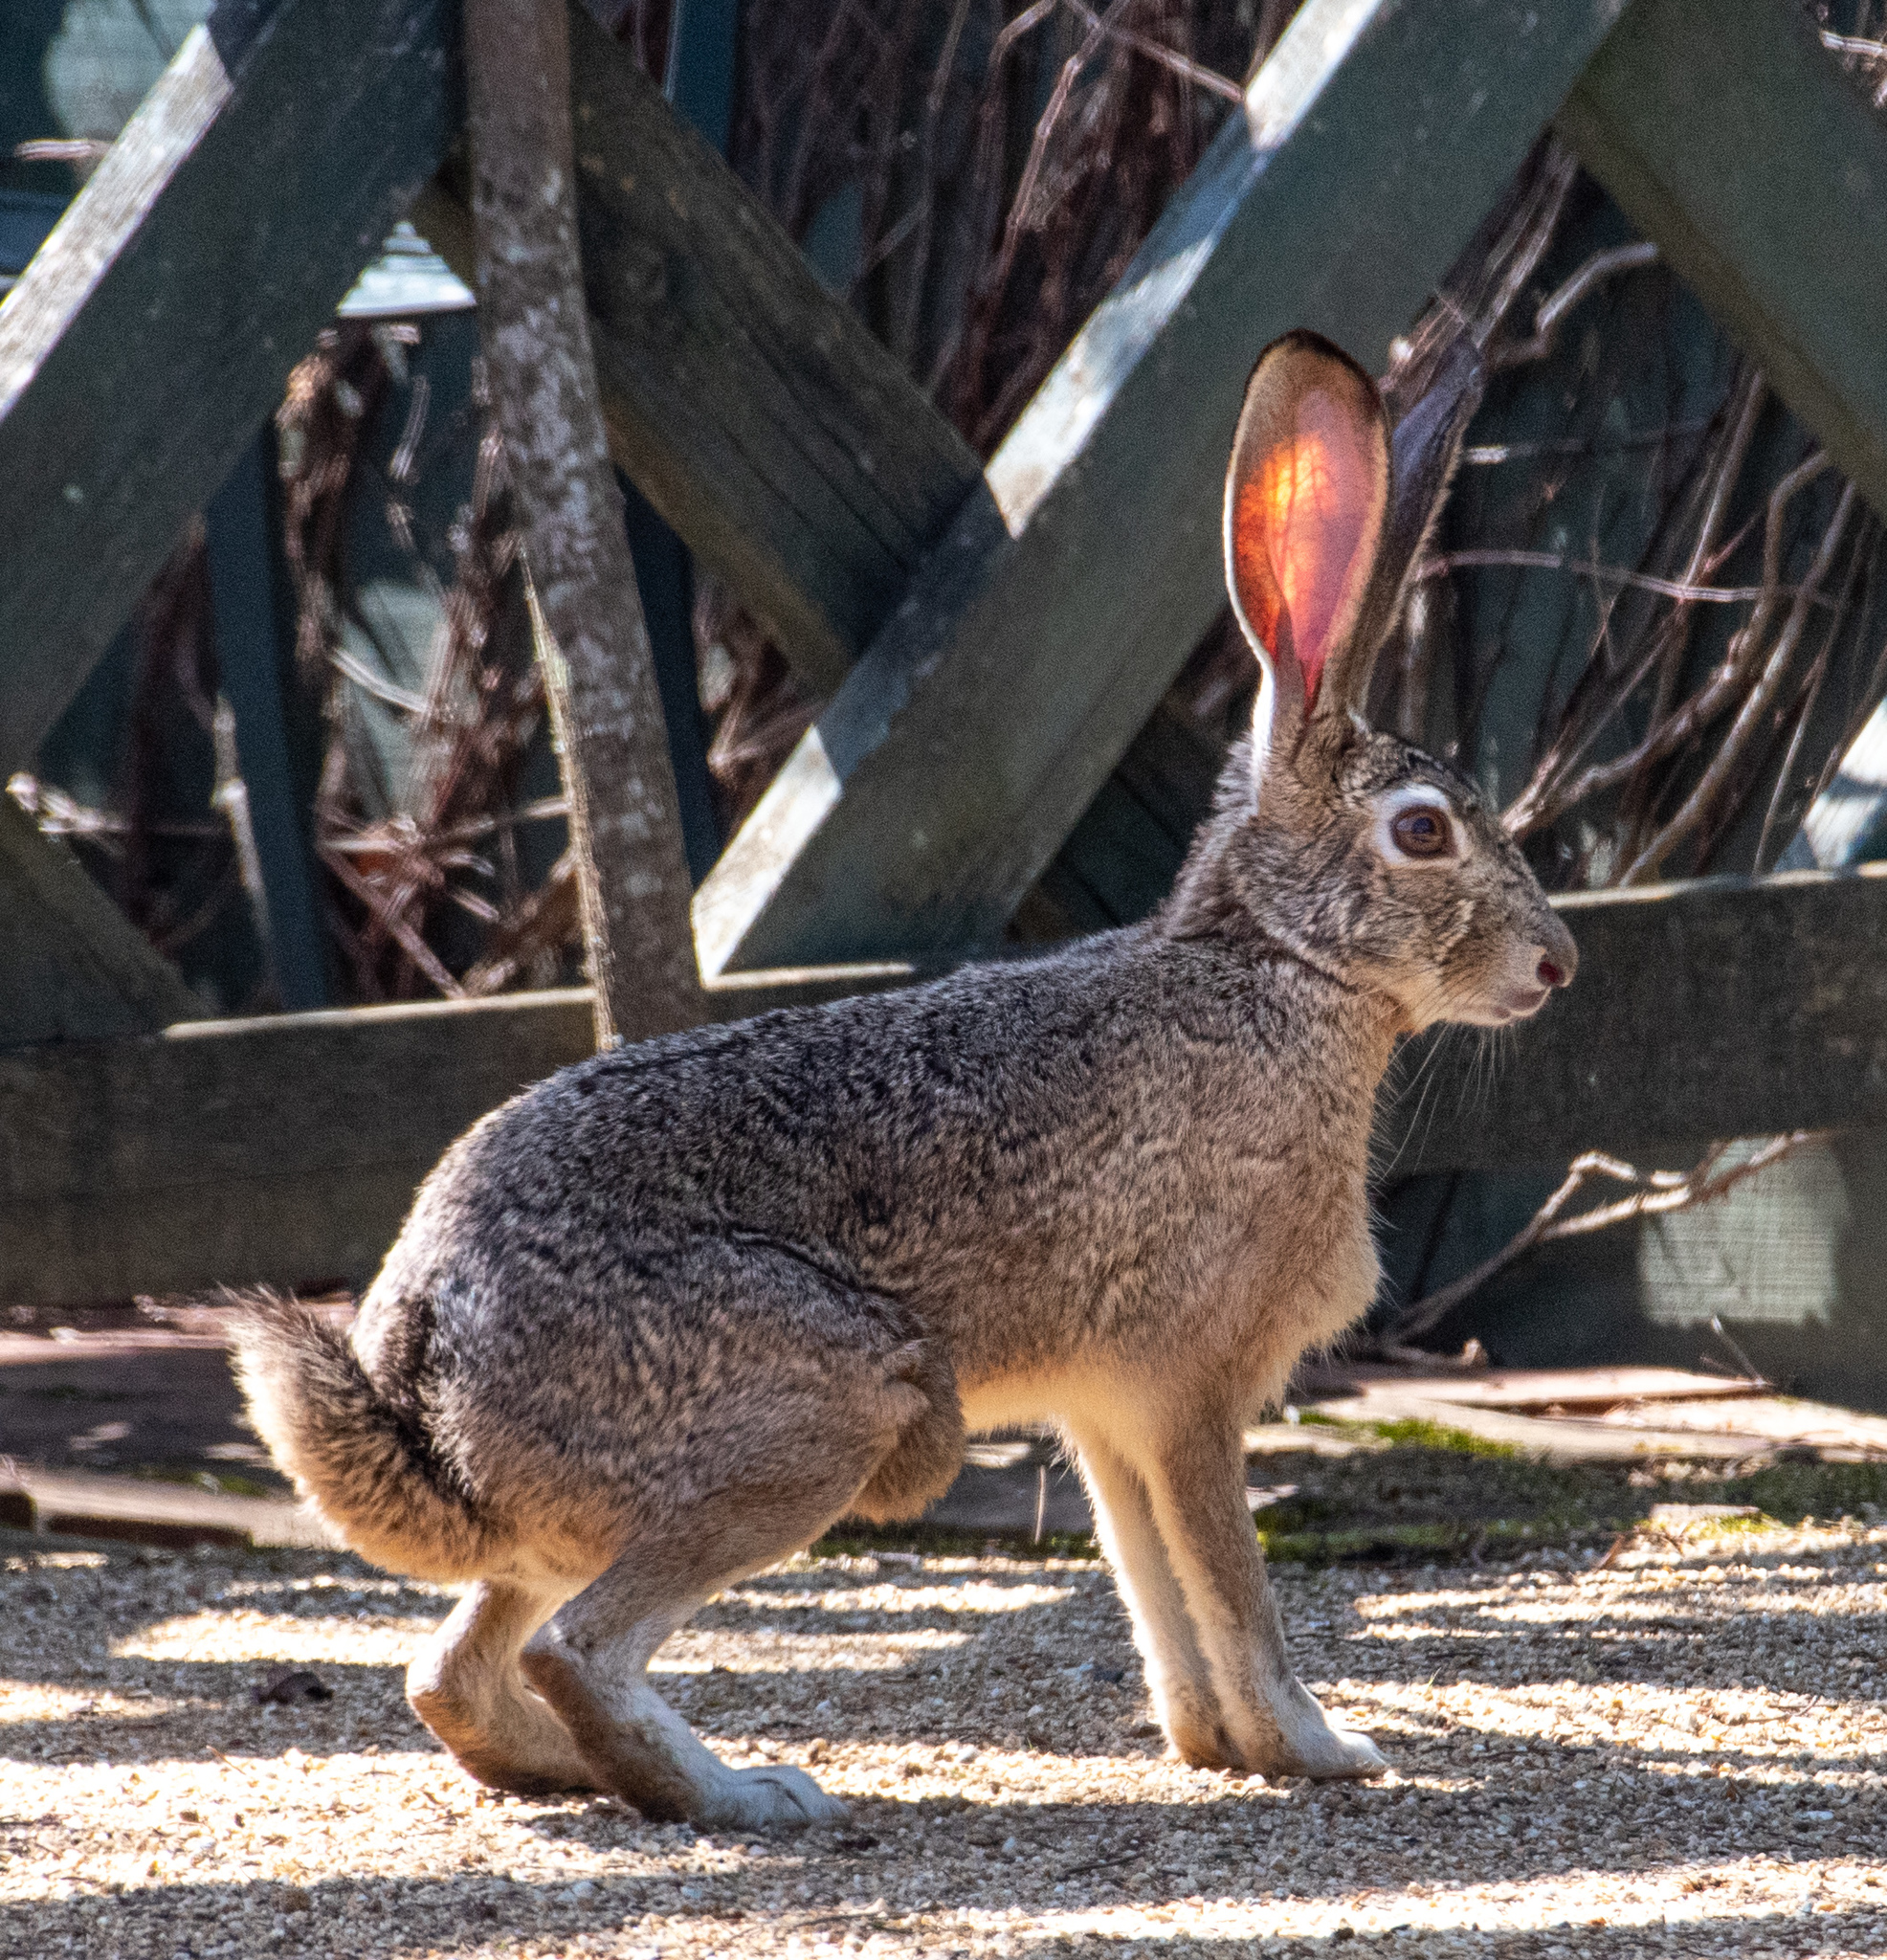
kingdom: Animalia
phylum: Chordata
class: Mammalia
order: Lagomorpha
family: Leporidae
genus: Lepus
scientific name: Lepus californicus
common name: Black-tailed jackrabbit
